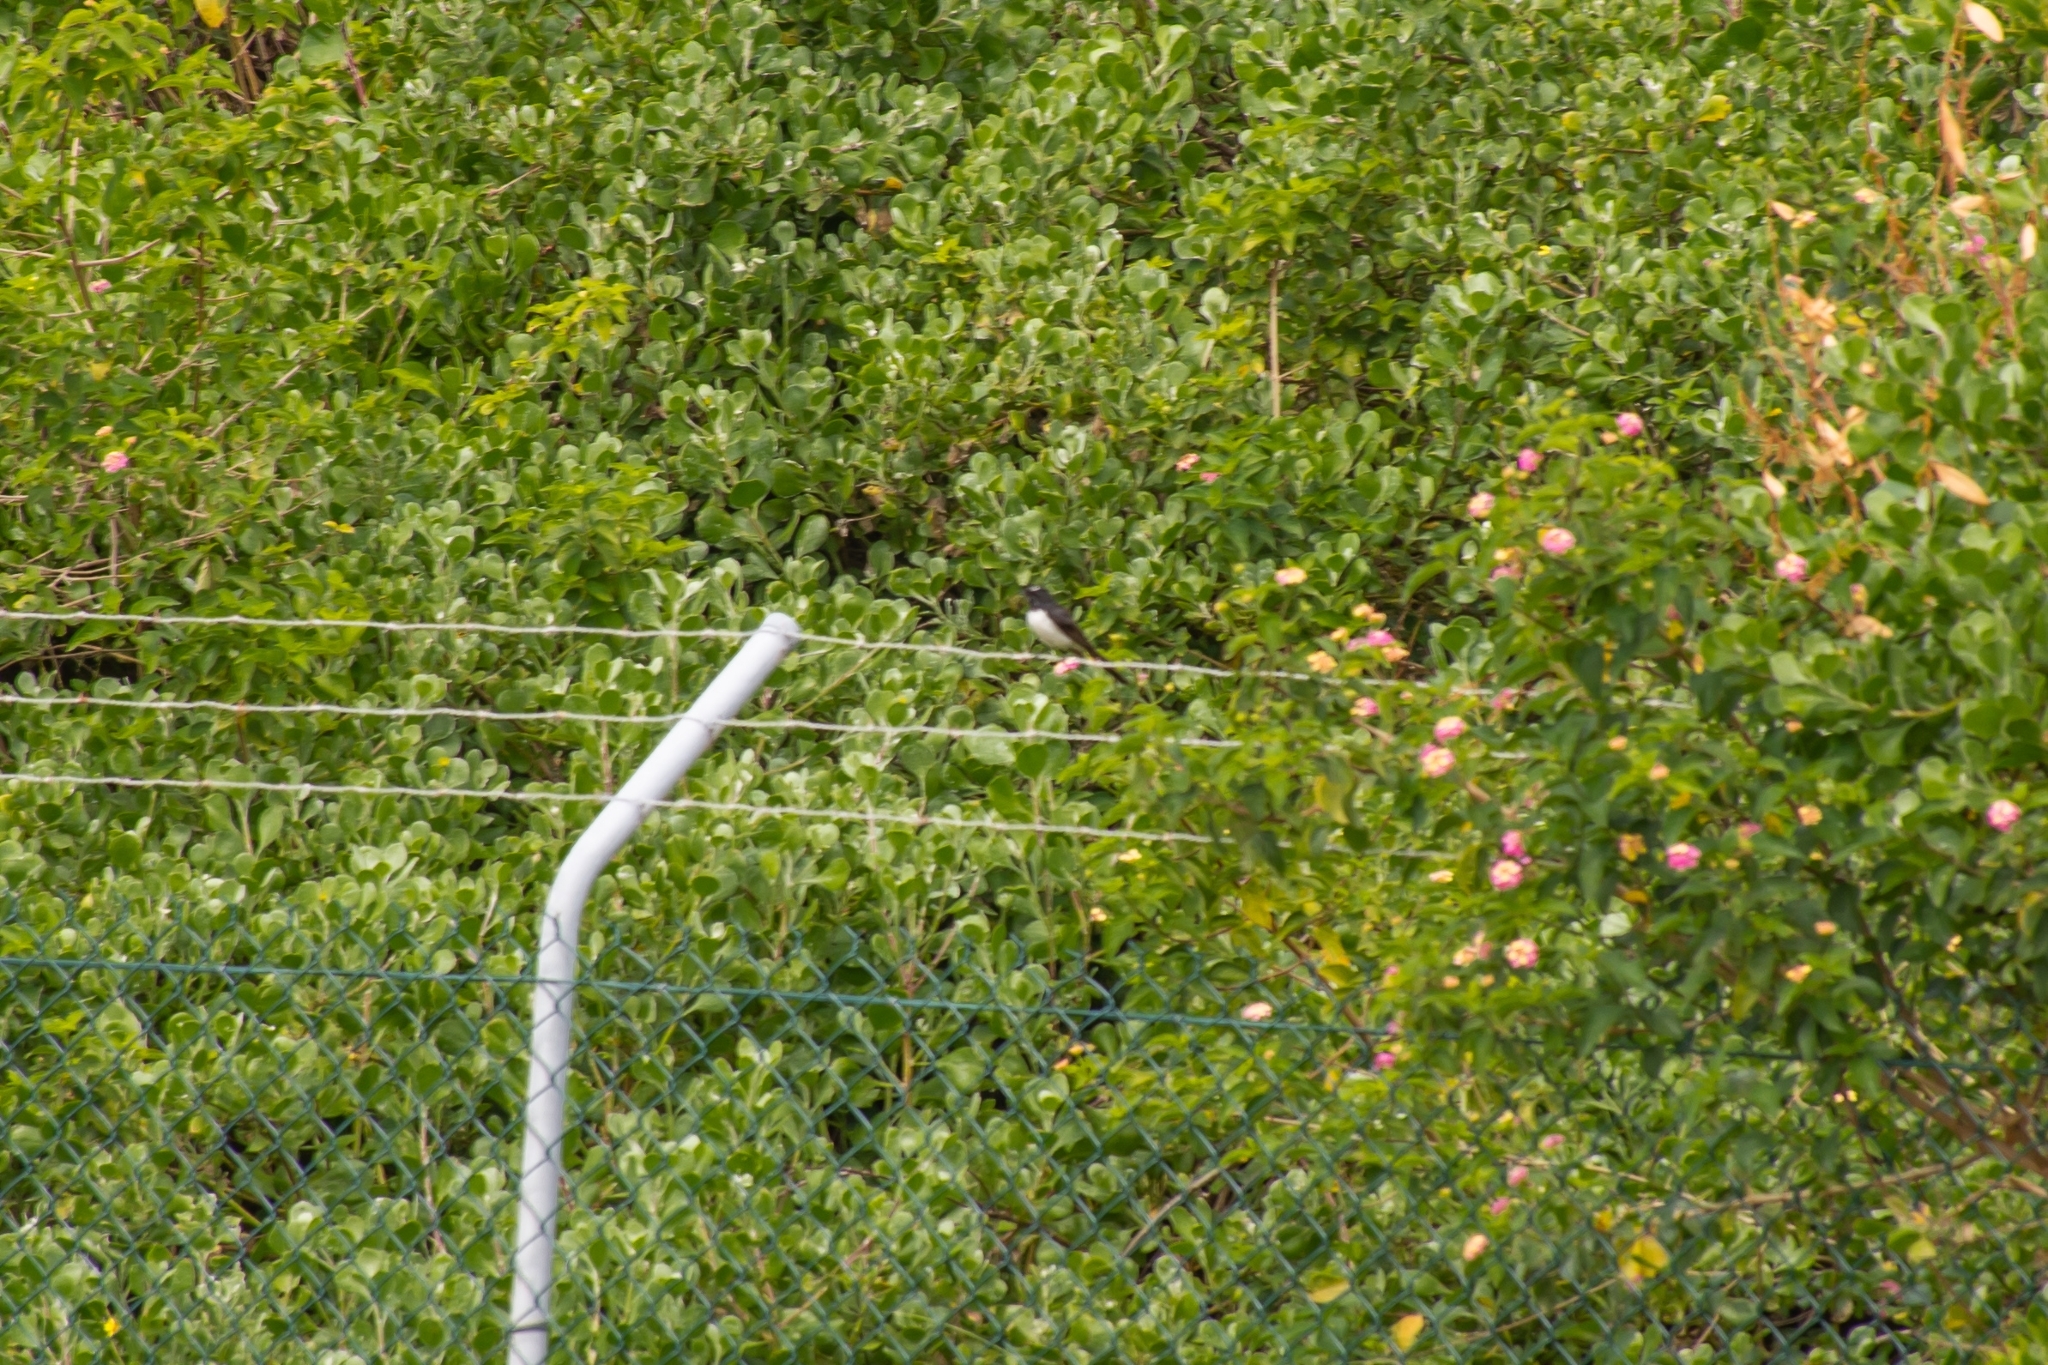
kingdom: Animalia
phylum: Chordata
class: Aves
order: Passeriformes
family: Rhipiduridae
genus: Rhipidura
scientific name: Rhipidura leucophrys
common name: Willie wagtail
